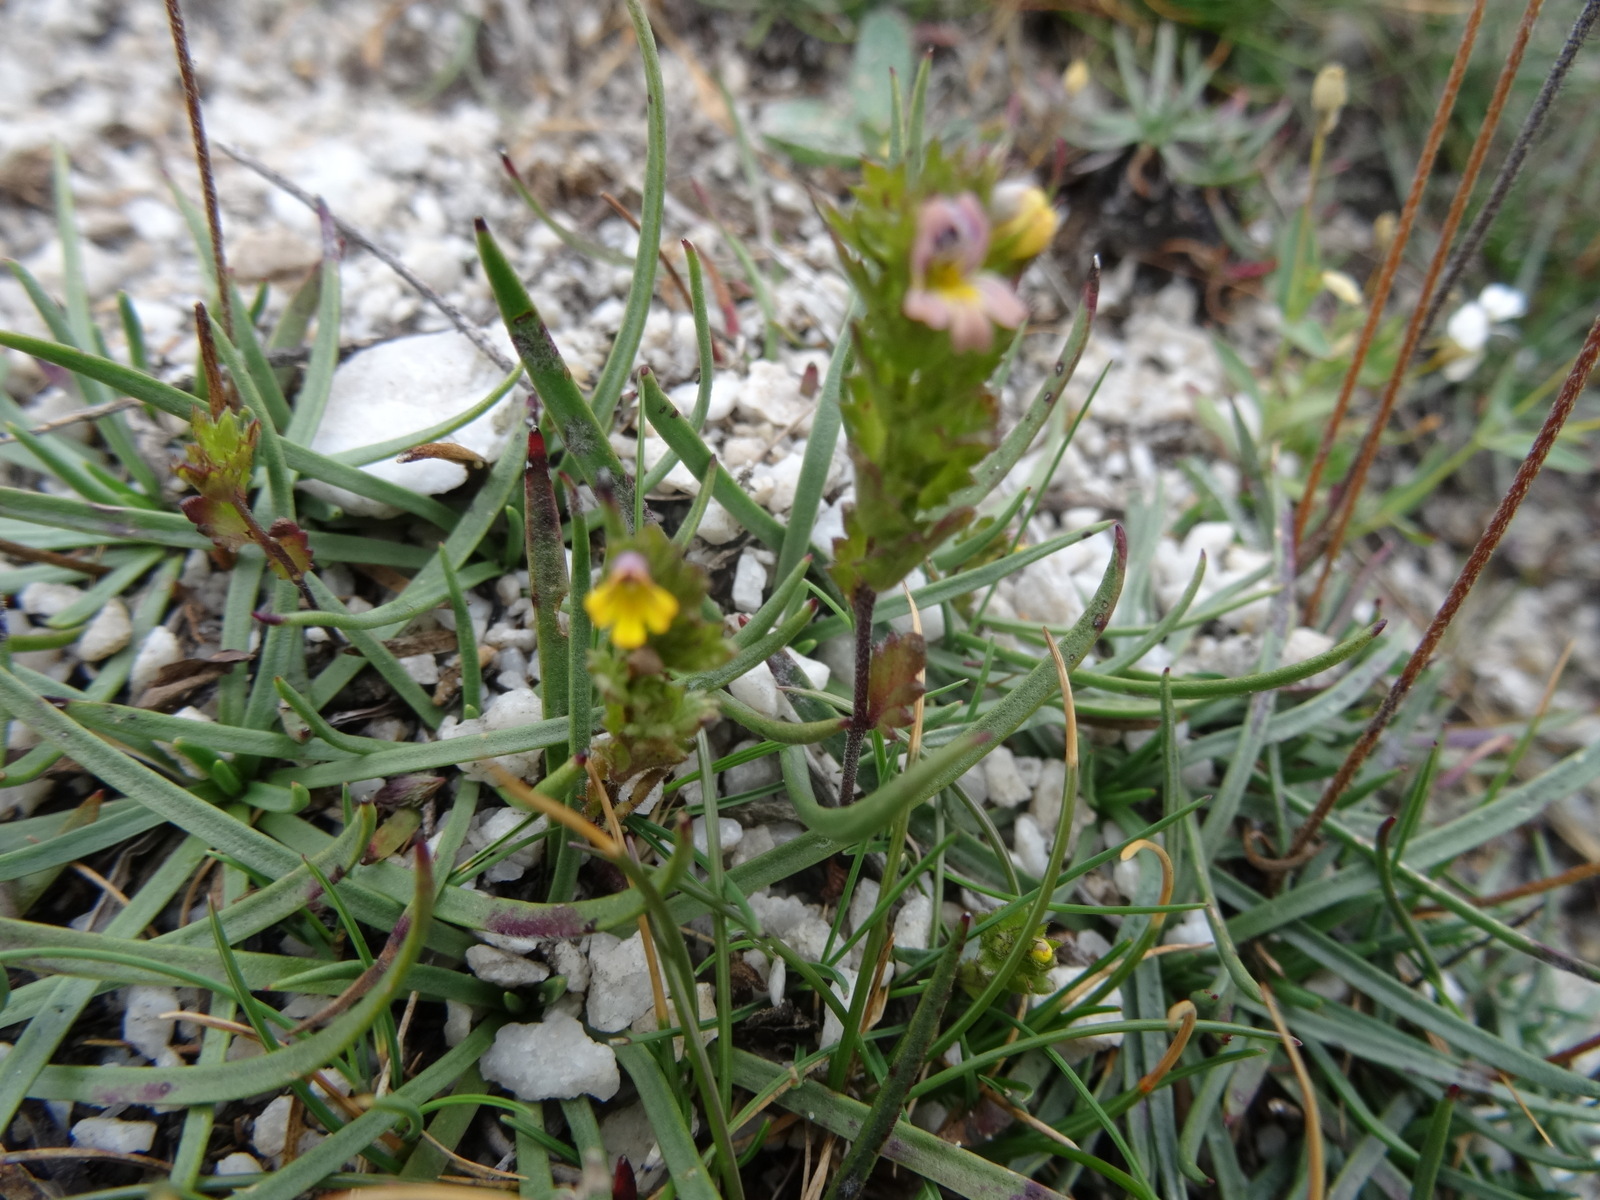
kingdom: Plantae
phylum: Tracheophyta
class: Magnoliopsida
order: Lamiales
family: Orobanchaceae
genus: Euphrasia
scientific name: Euphrasia minima
